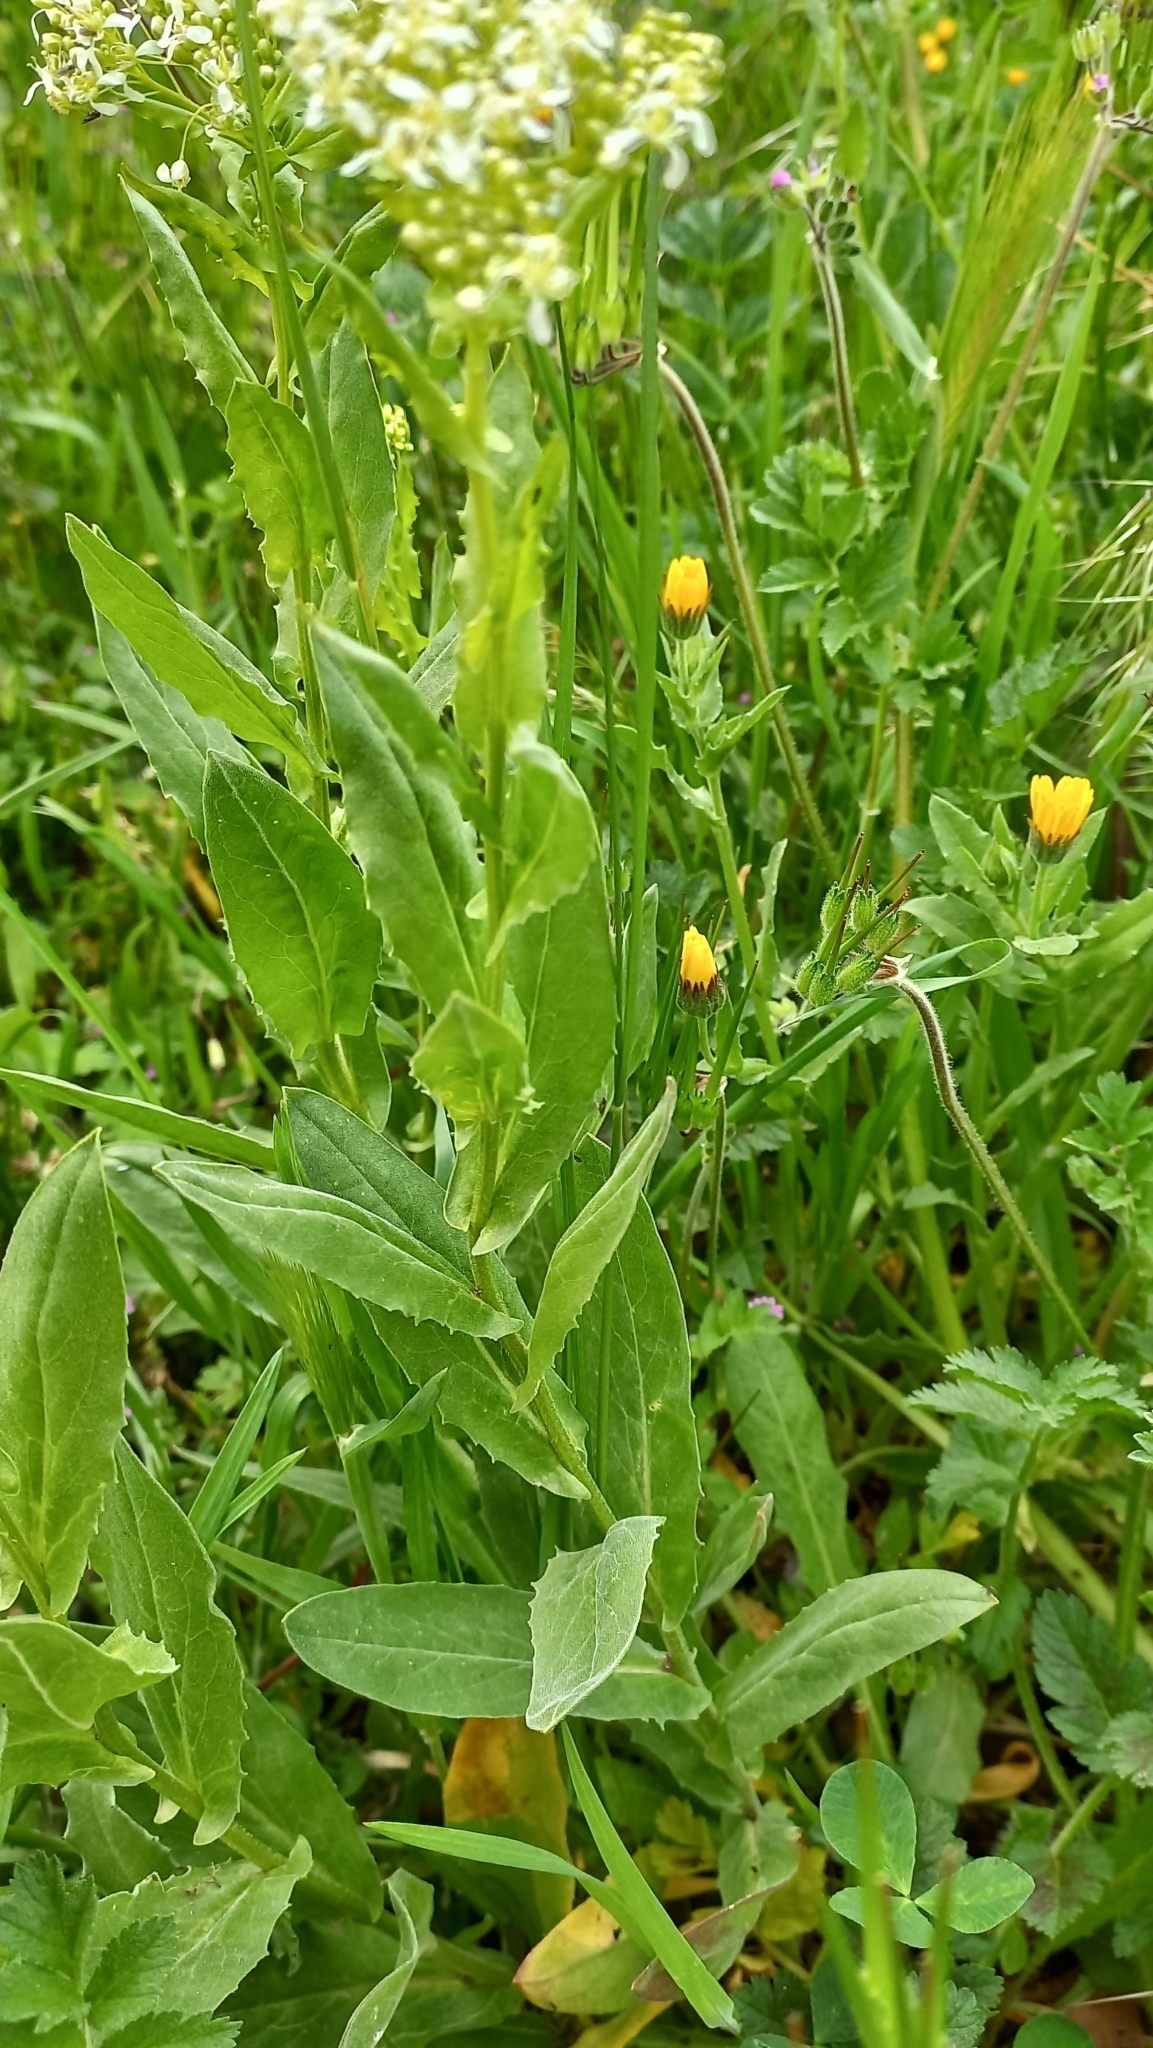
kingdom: Plantae
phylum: Tracheophyta
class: Magnoliopsida
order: Brassicales
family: Brassicaceae
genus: Lepidium
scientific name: Lepidium draba
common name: Hoary cress
